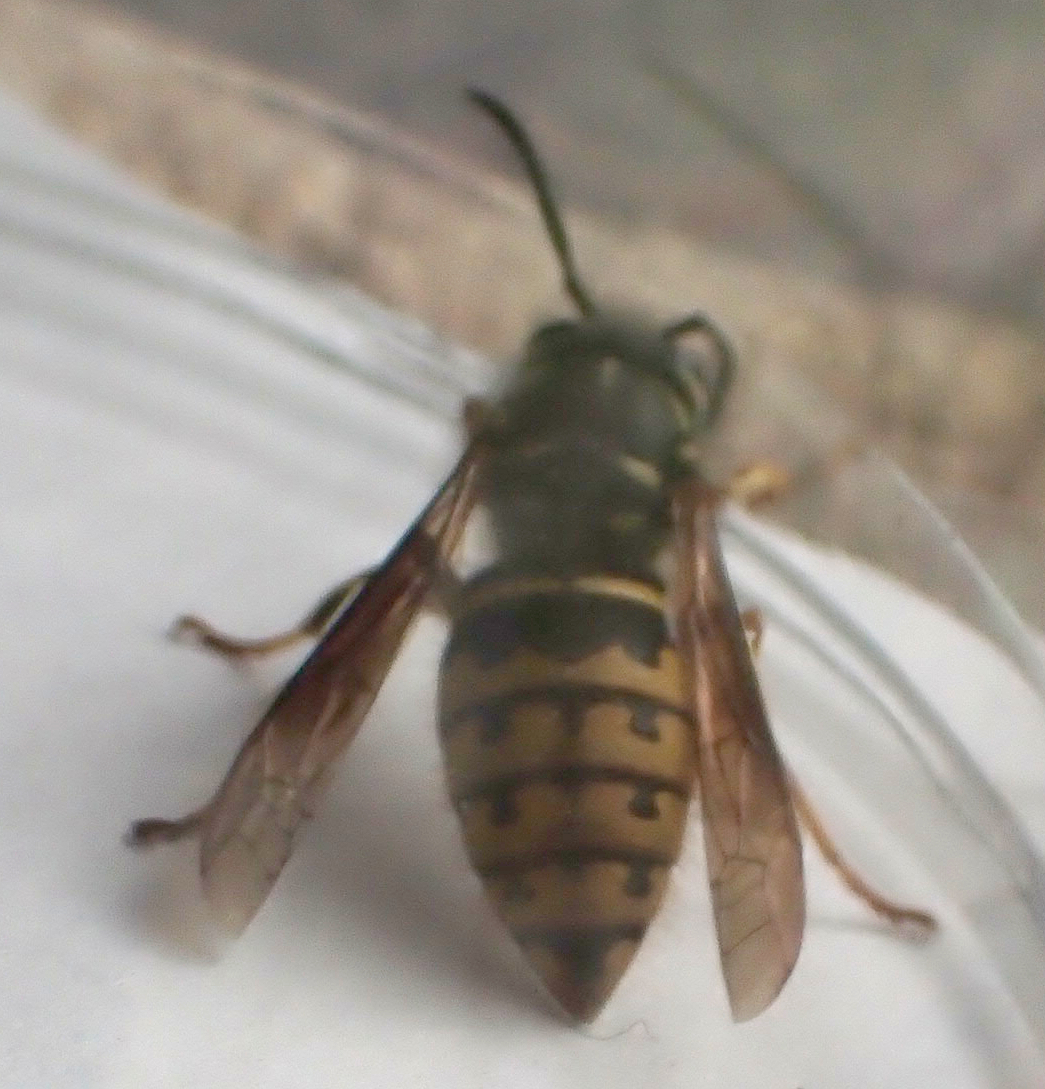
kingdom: Animalia
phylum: Arthropoda
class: Insecta
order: Hymenoptera
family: Vespidae
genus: Vespula
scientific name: Vespula alascensis
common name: Alaska yellowjacket
